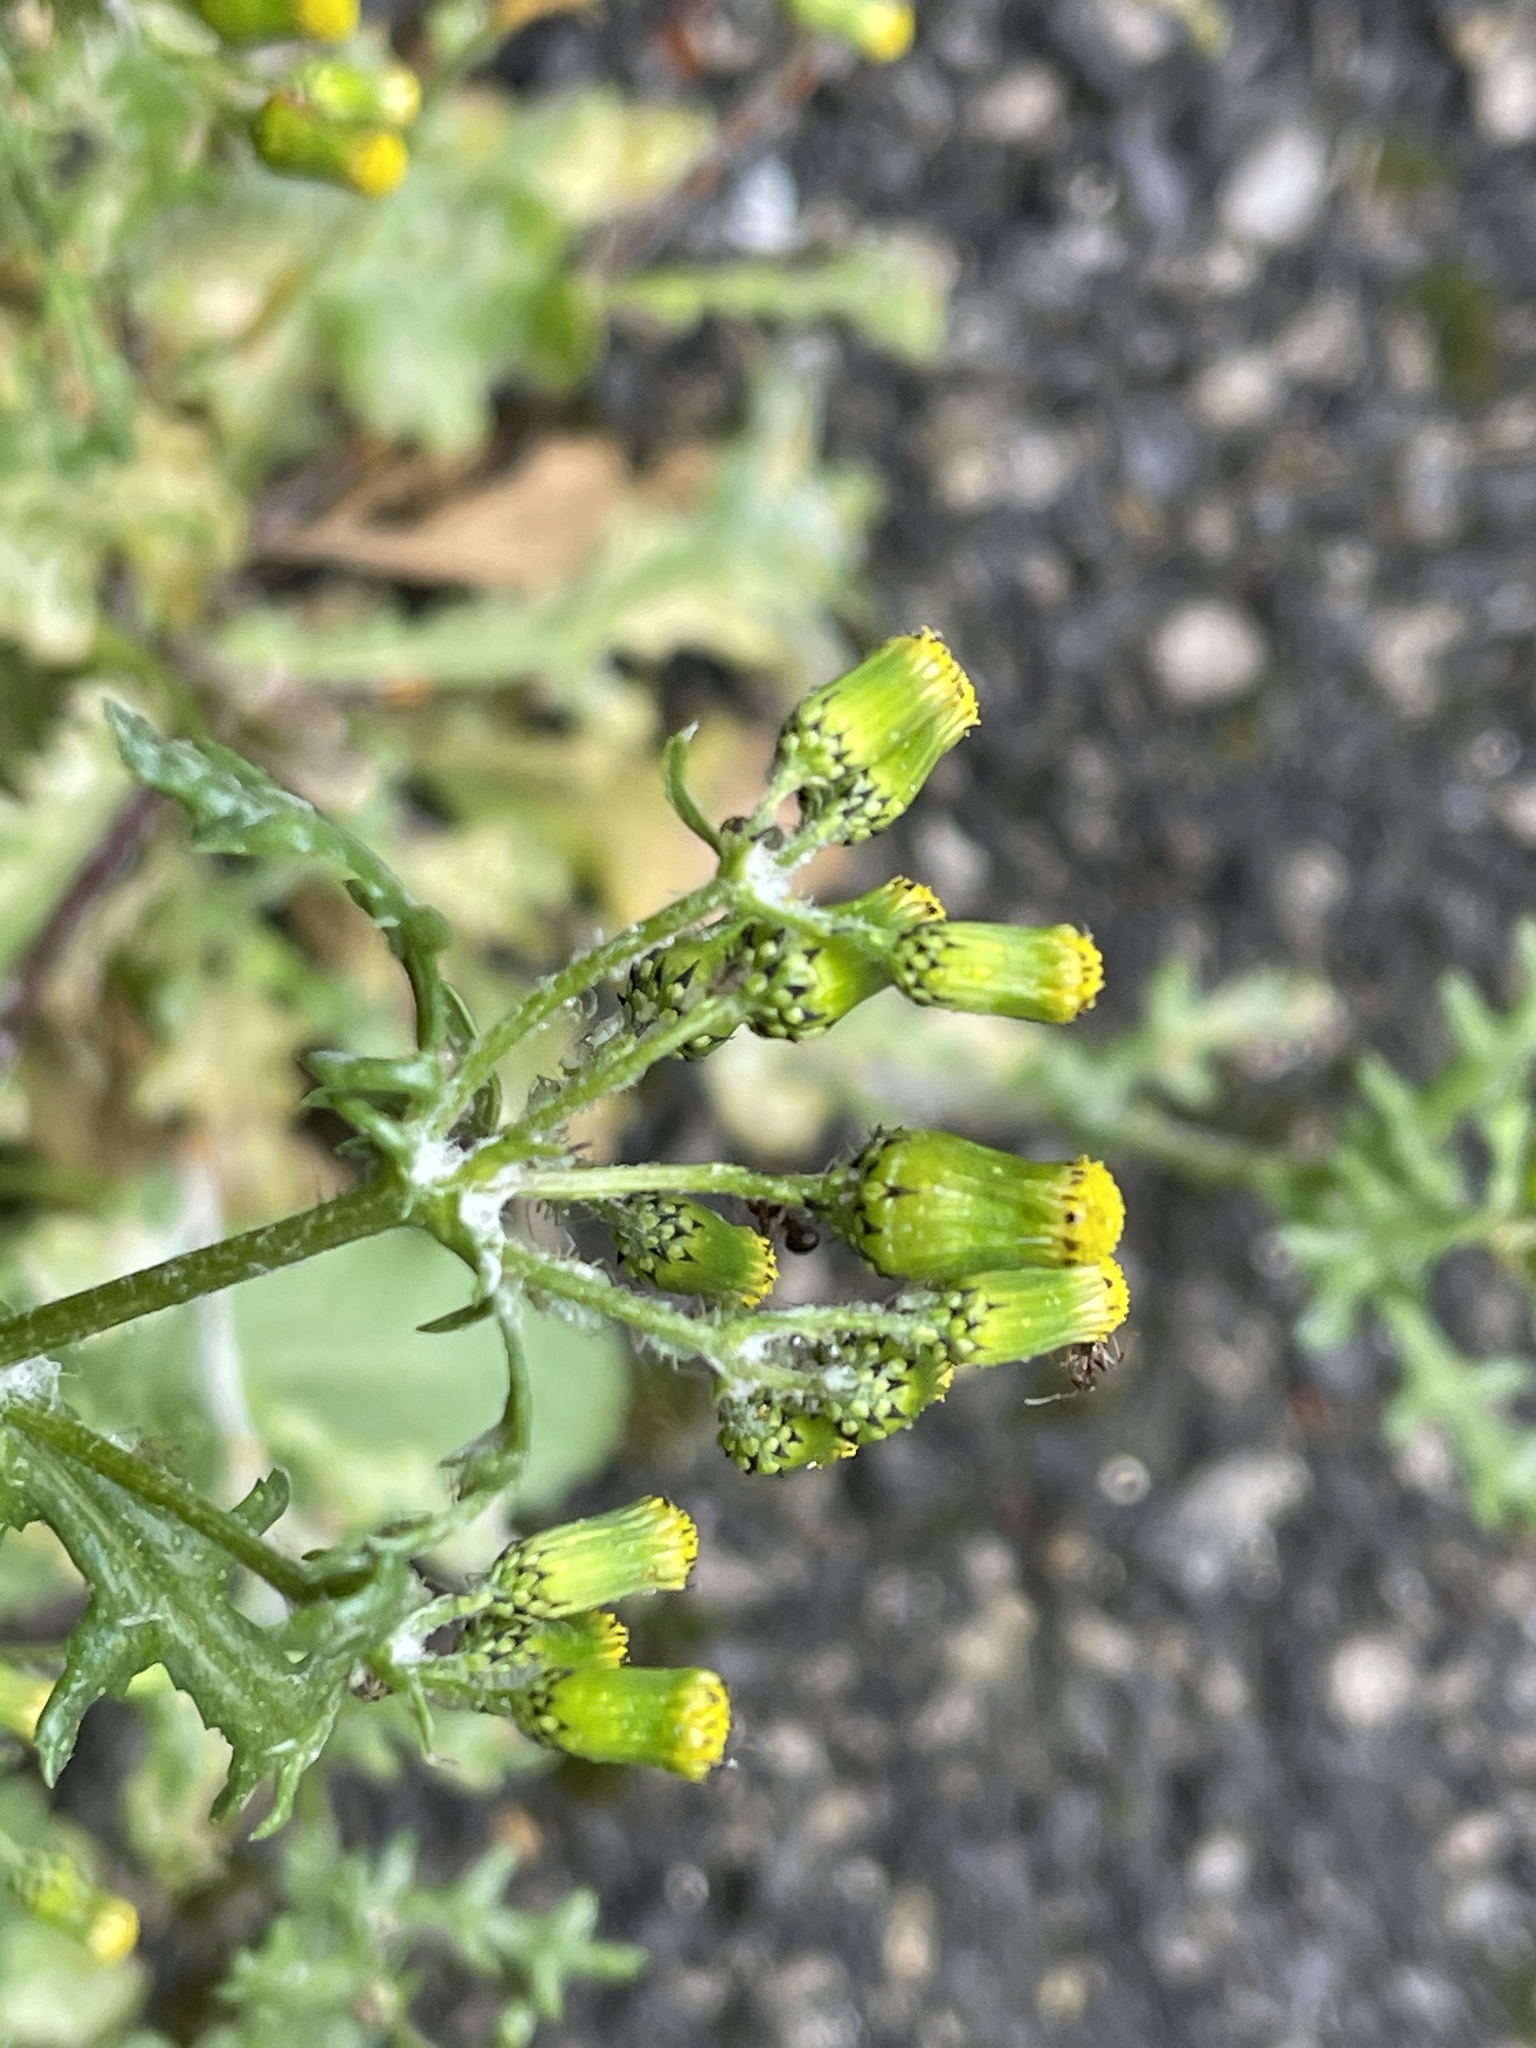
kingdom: Plantae
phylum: Tracheophyta
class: Magnoliopsida
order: Asterales
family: Asteraceae
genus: Senecio
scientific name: Senecio vulgaris
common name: Old-man-in-the-spring
